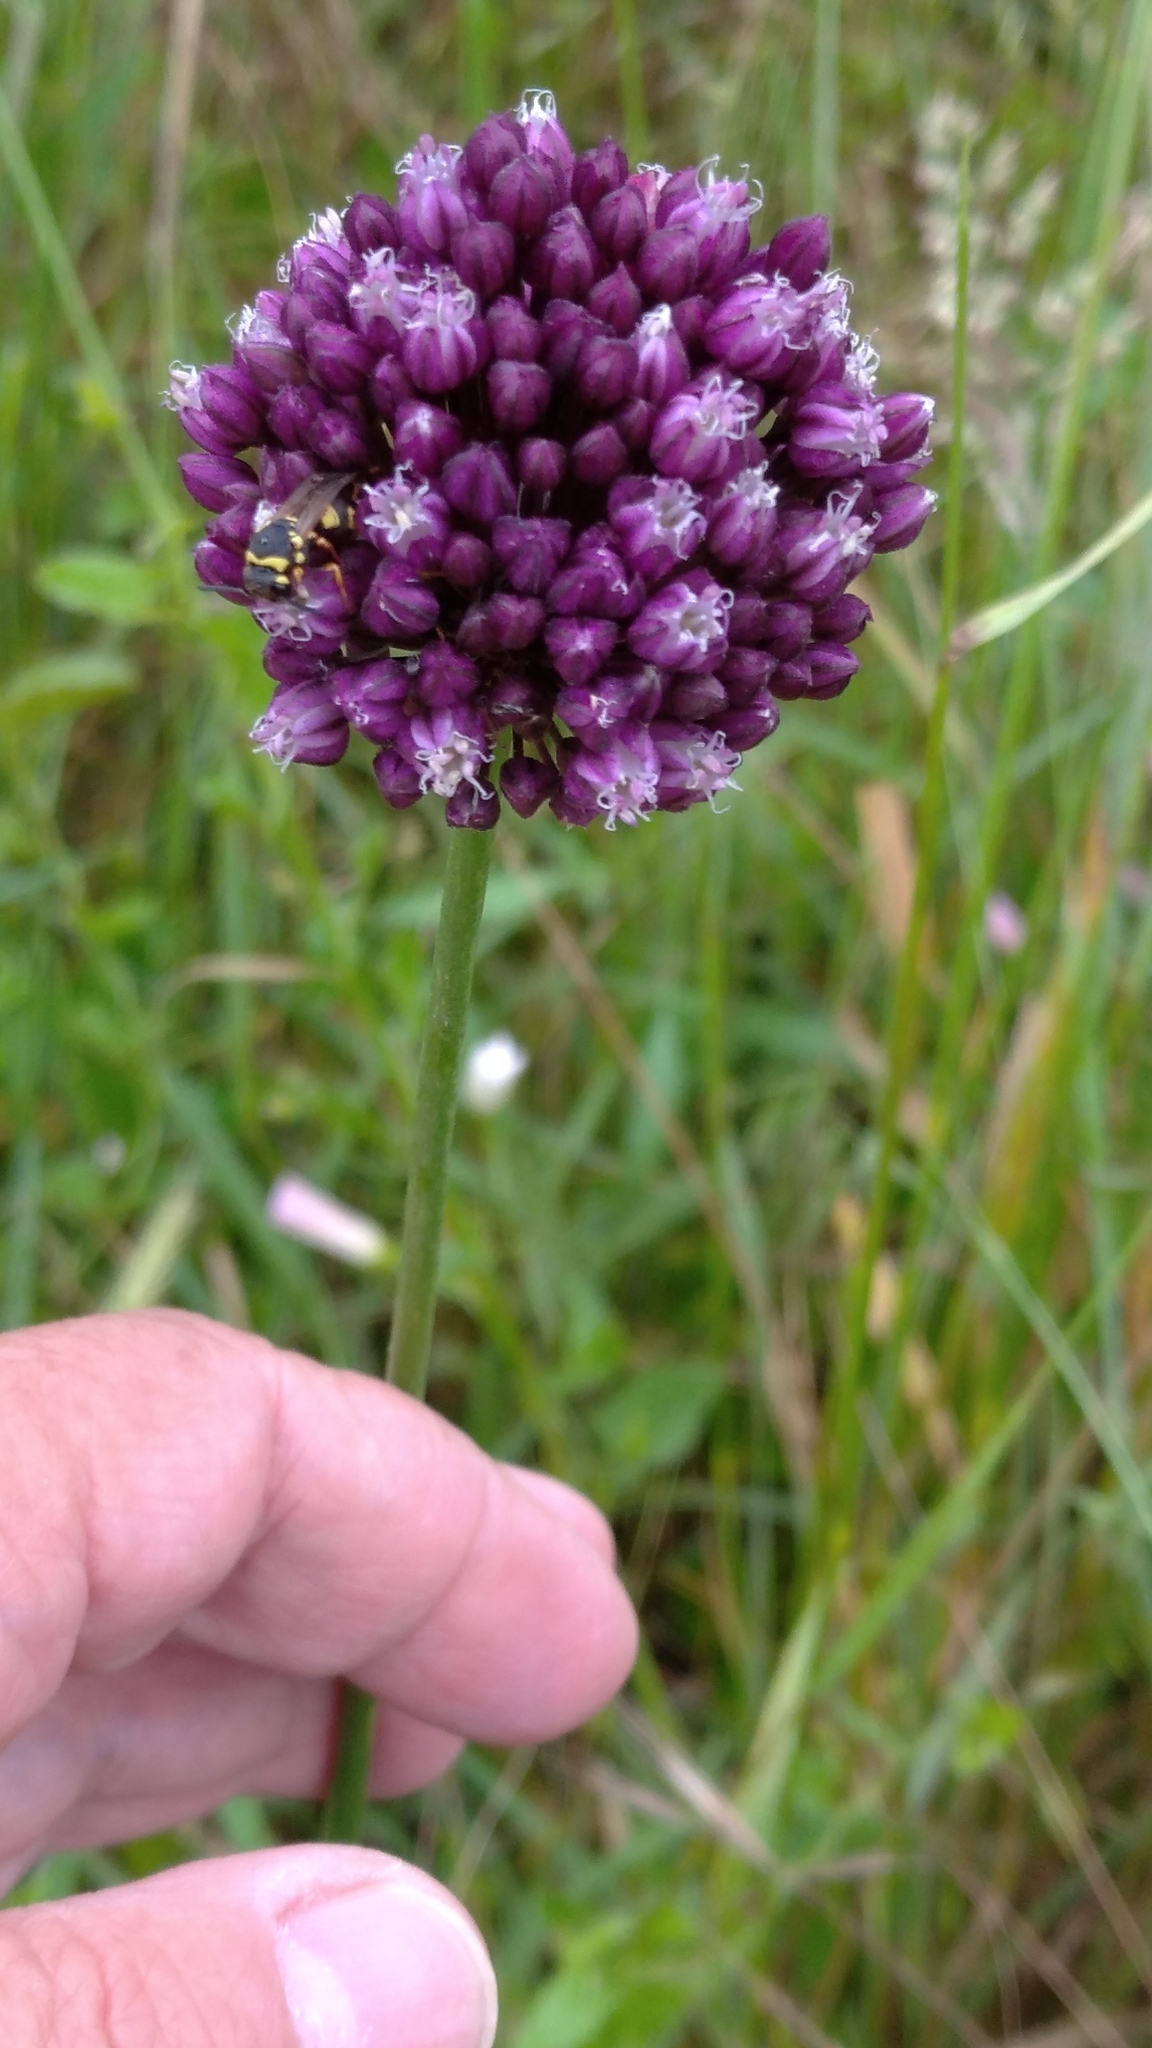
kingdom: Plantae
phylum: Tracheophyta
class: Liliopsida
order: Asparagales
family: Amaryllidaceae
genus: Allium
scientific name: Allium rotundum
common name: Sand leek
